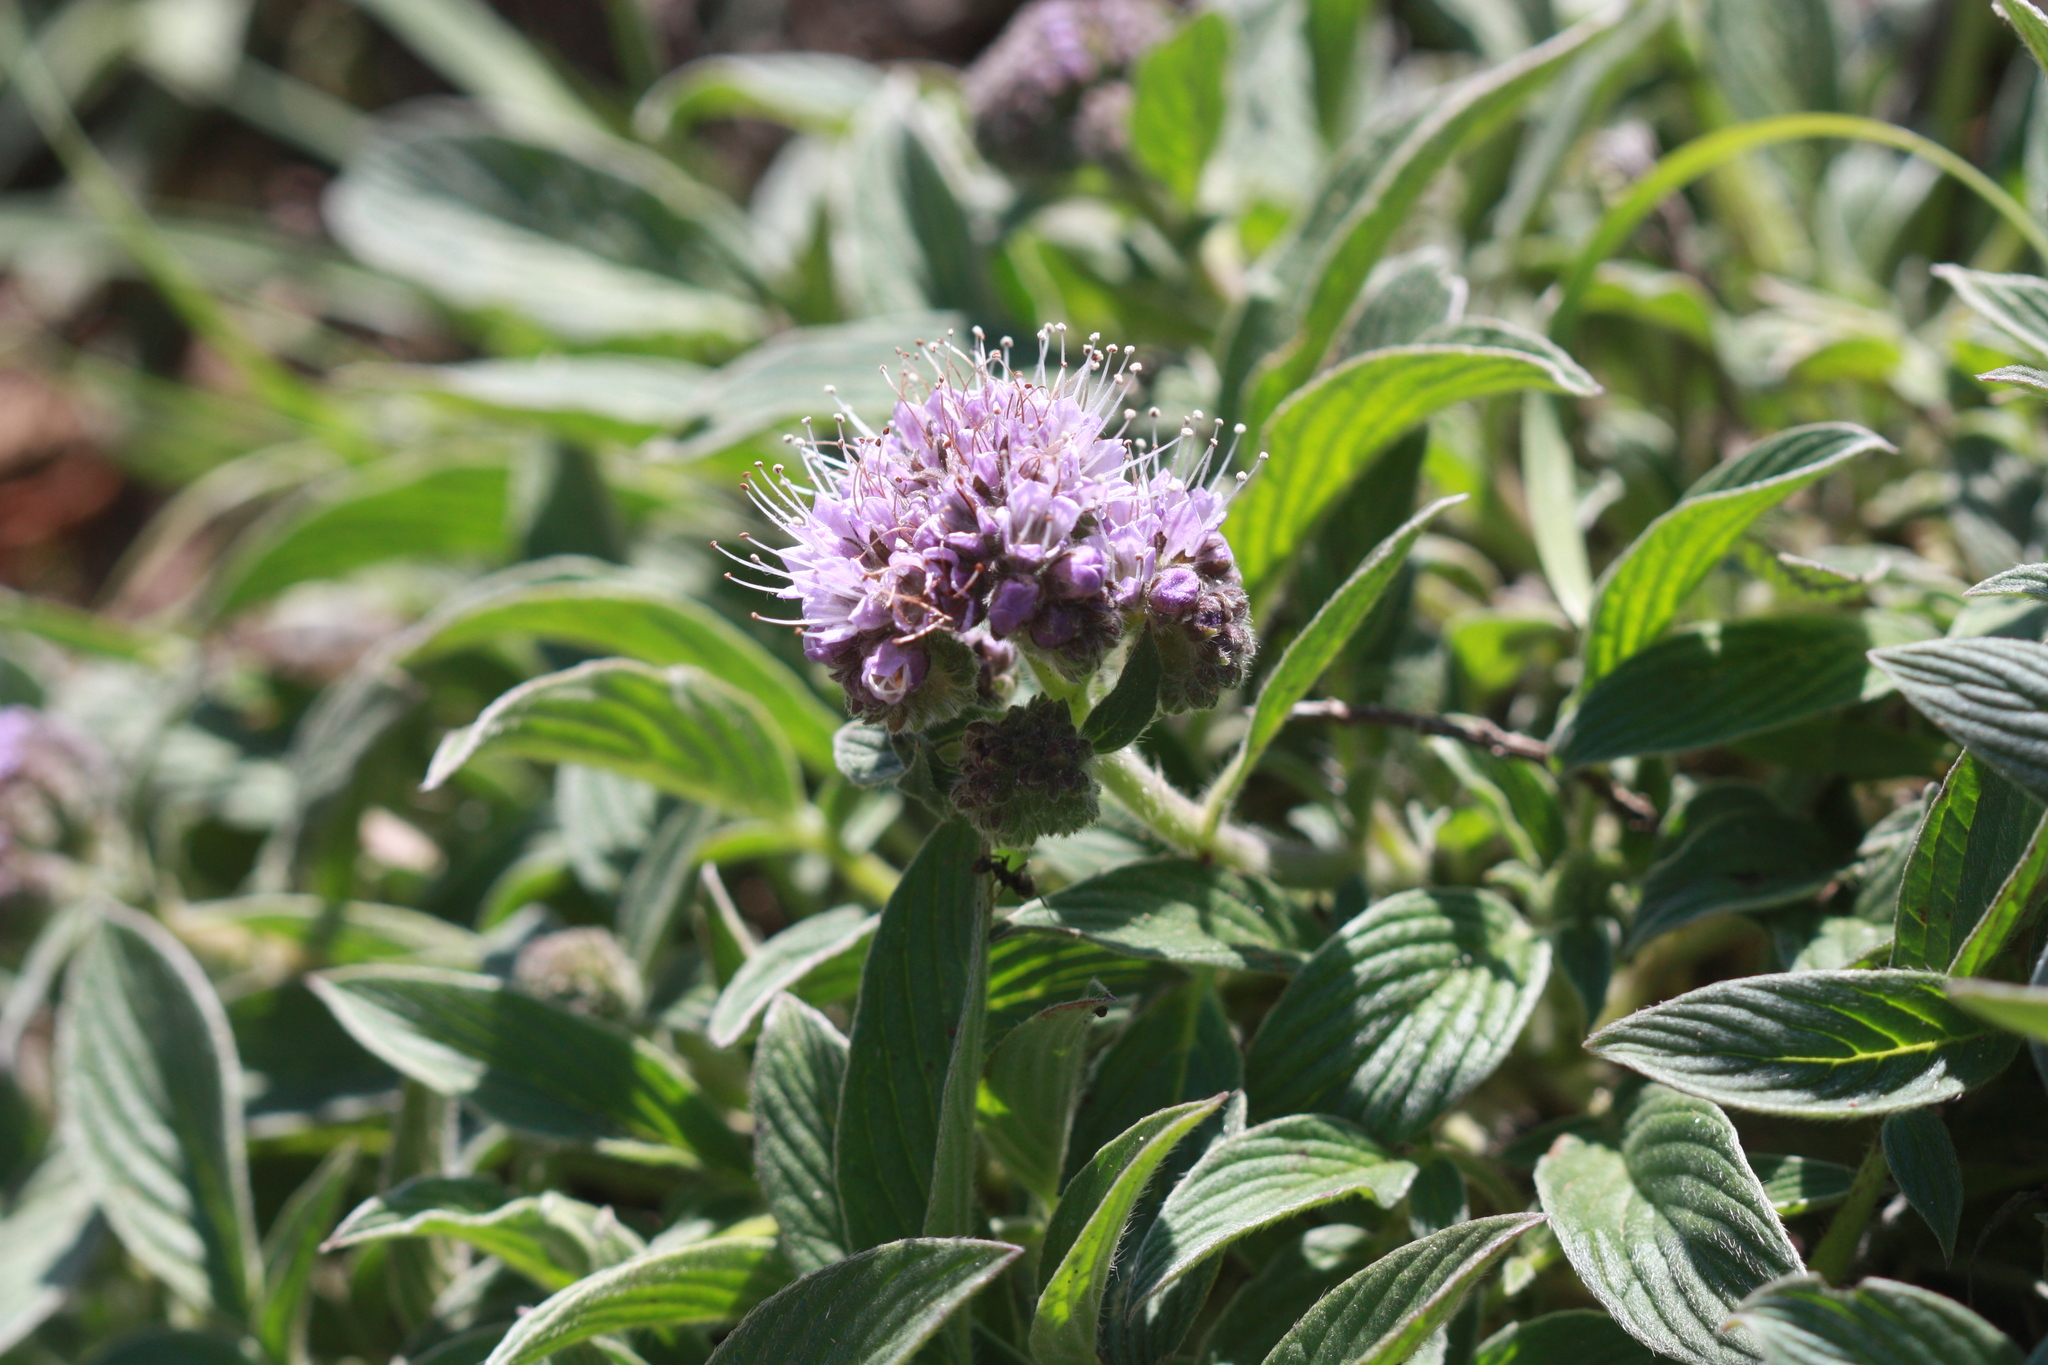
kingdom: Plantae
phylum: Tracheophyta
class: Magnoliopsida
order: Boraginales
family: Hydrophyllaceae
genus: Phacelia
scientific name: Phacelia californica
